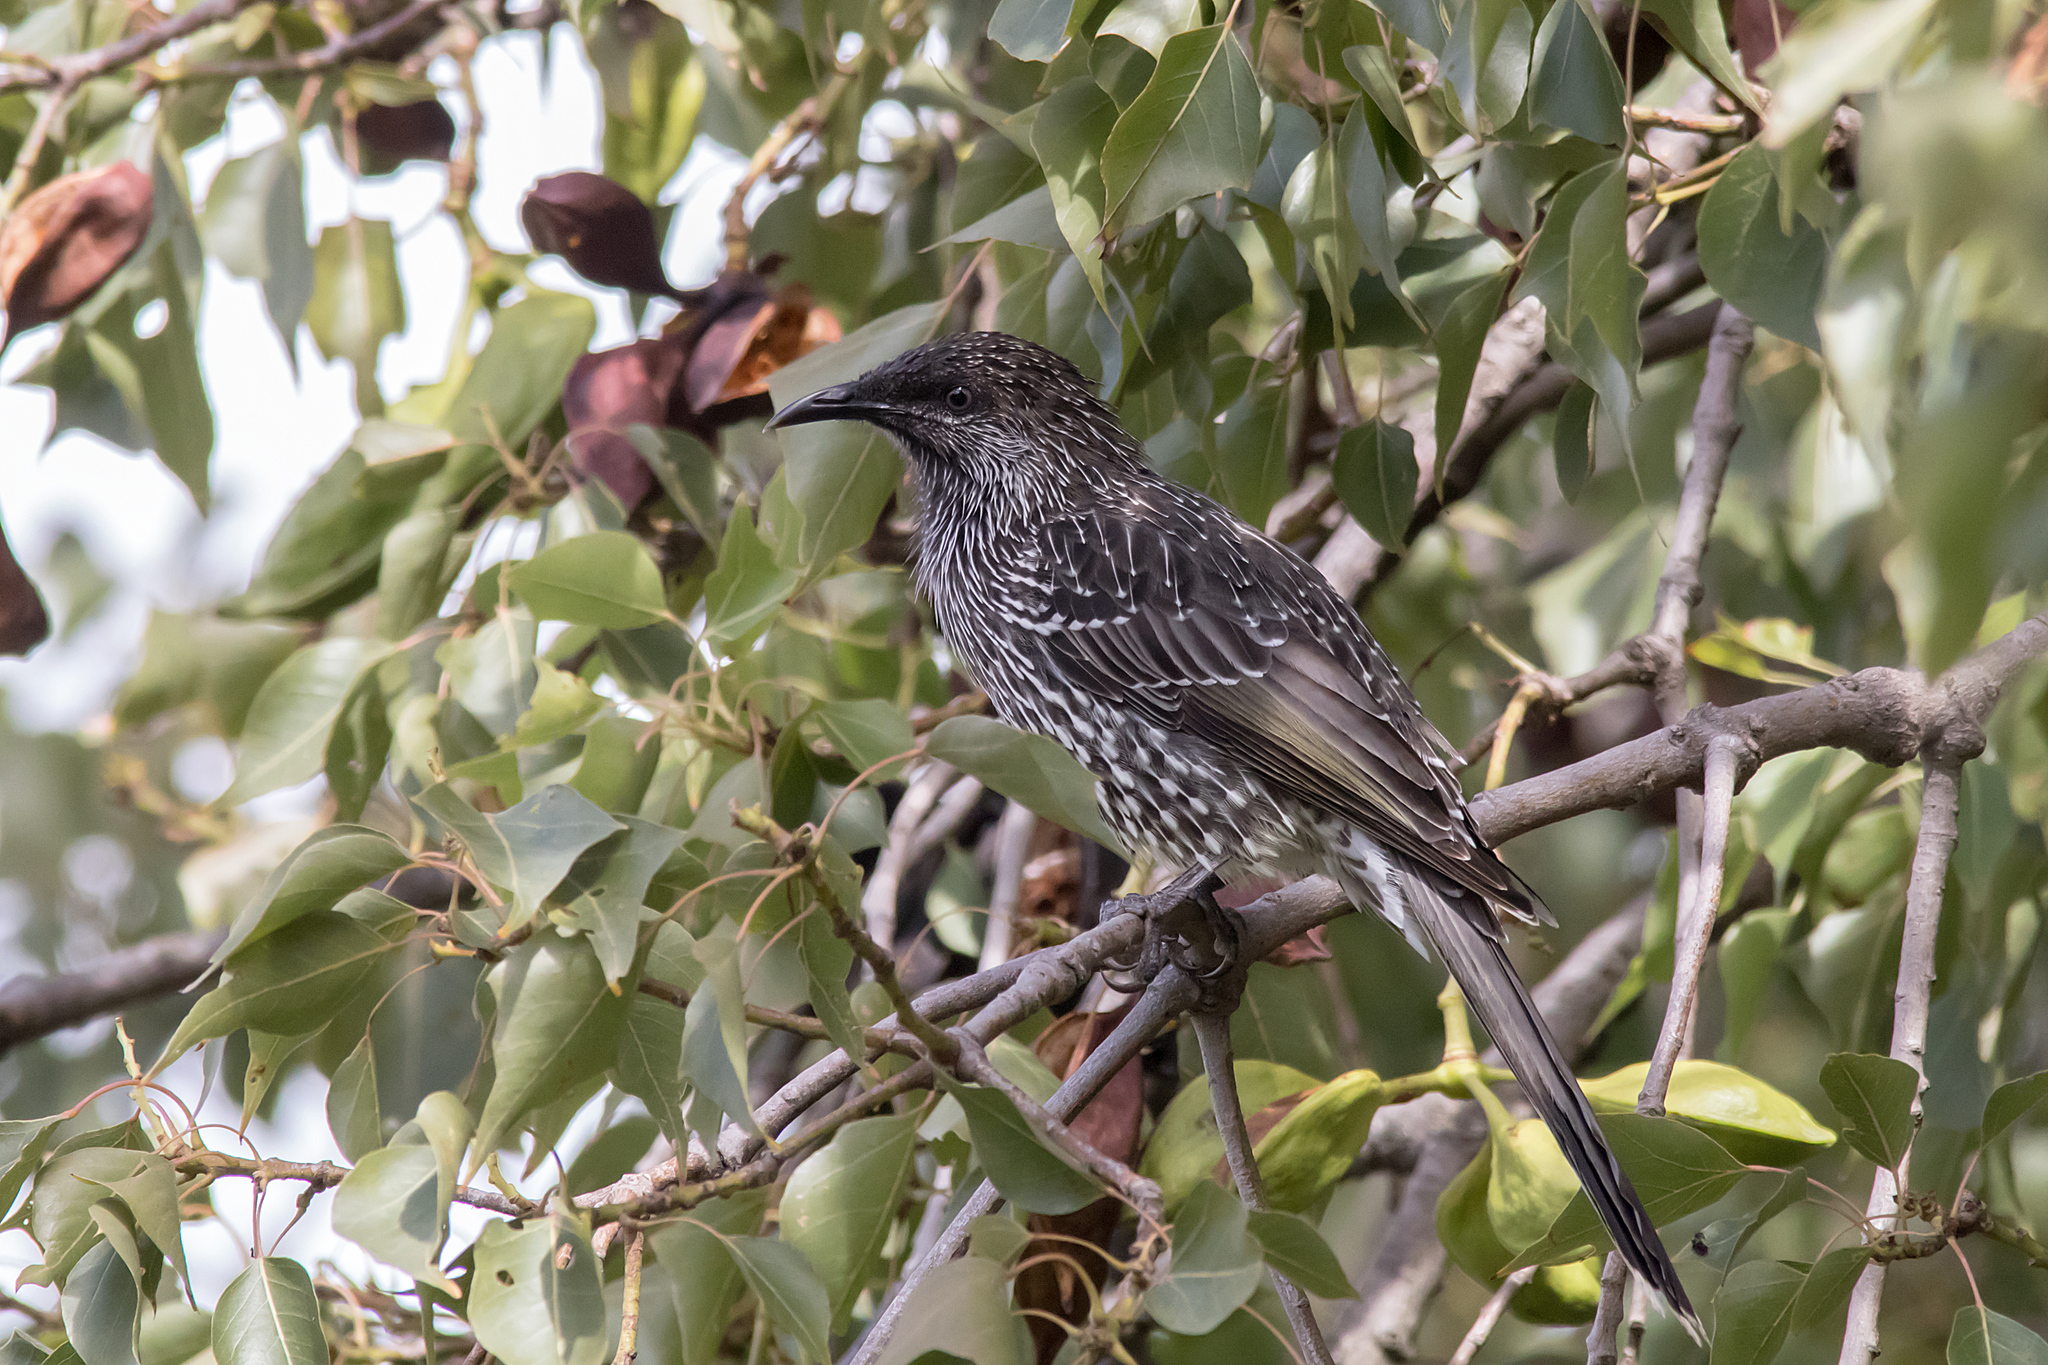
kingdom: Animalia
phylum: Chordata
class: Aves
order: Passeriformes
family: Meliphagidae
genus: Anthochaera
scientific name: Anthochaera chrysoptera
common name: Little wattlebird
